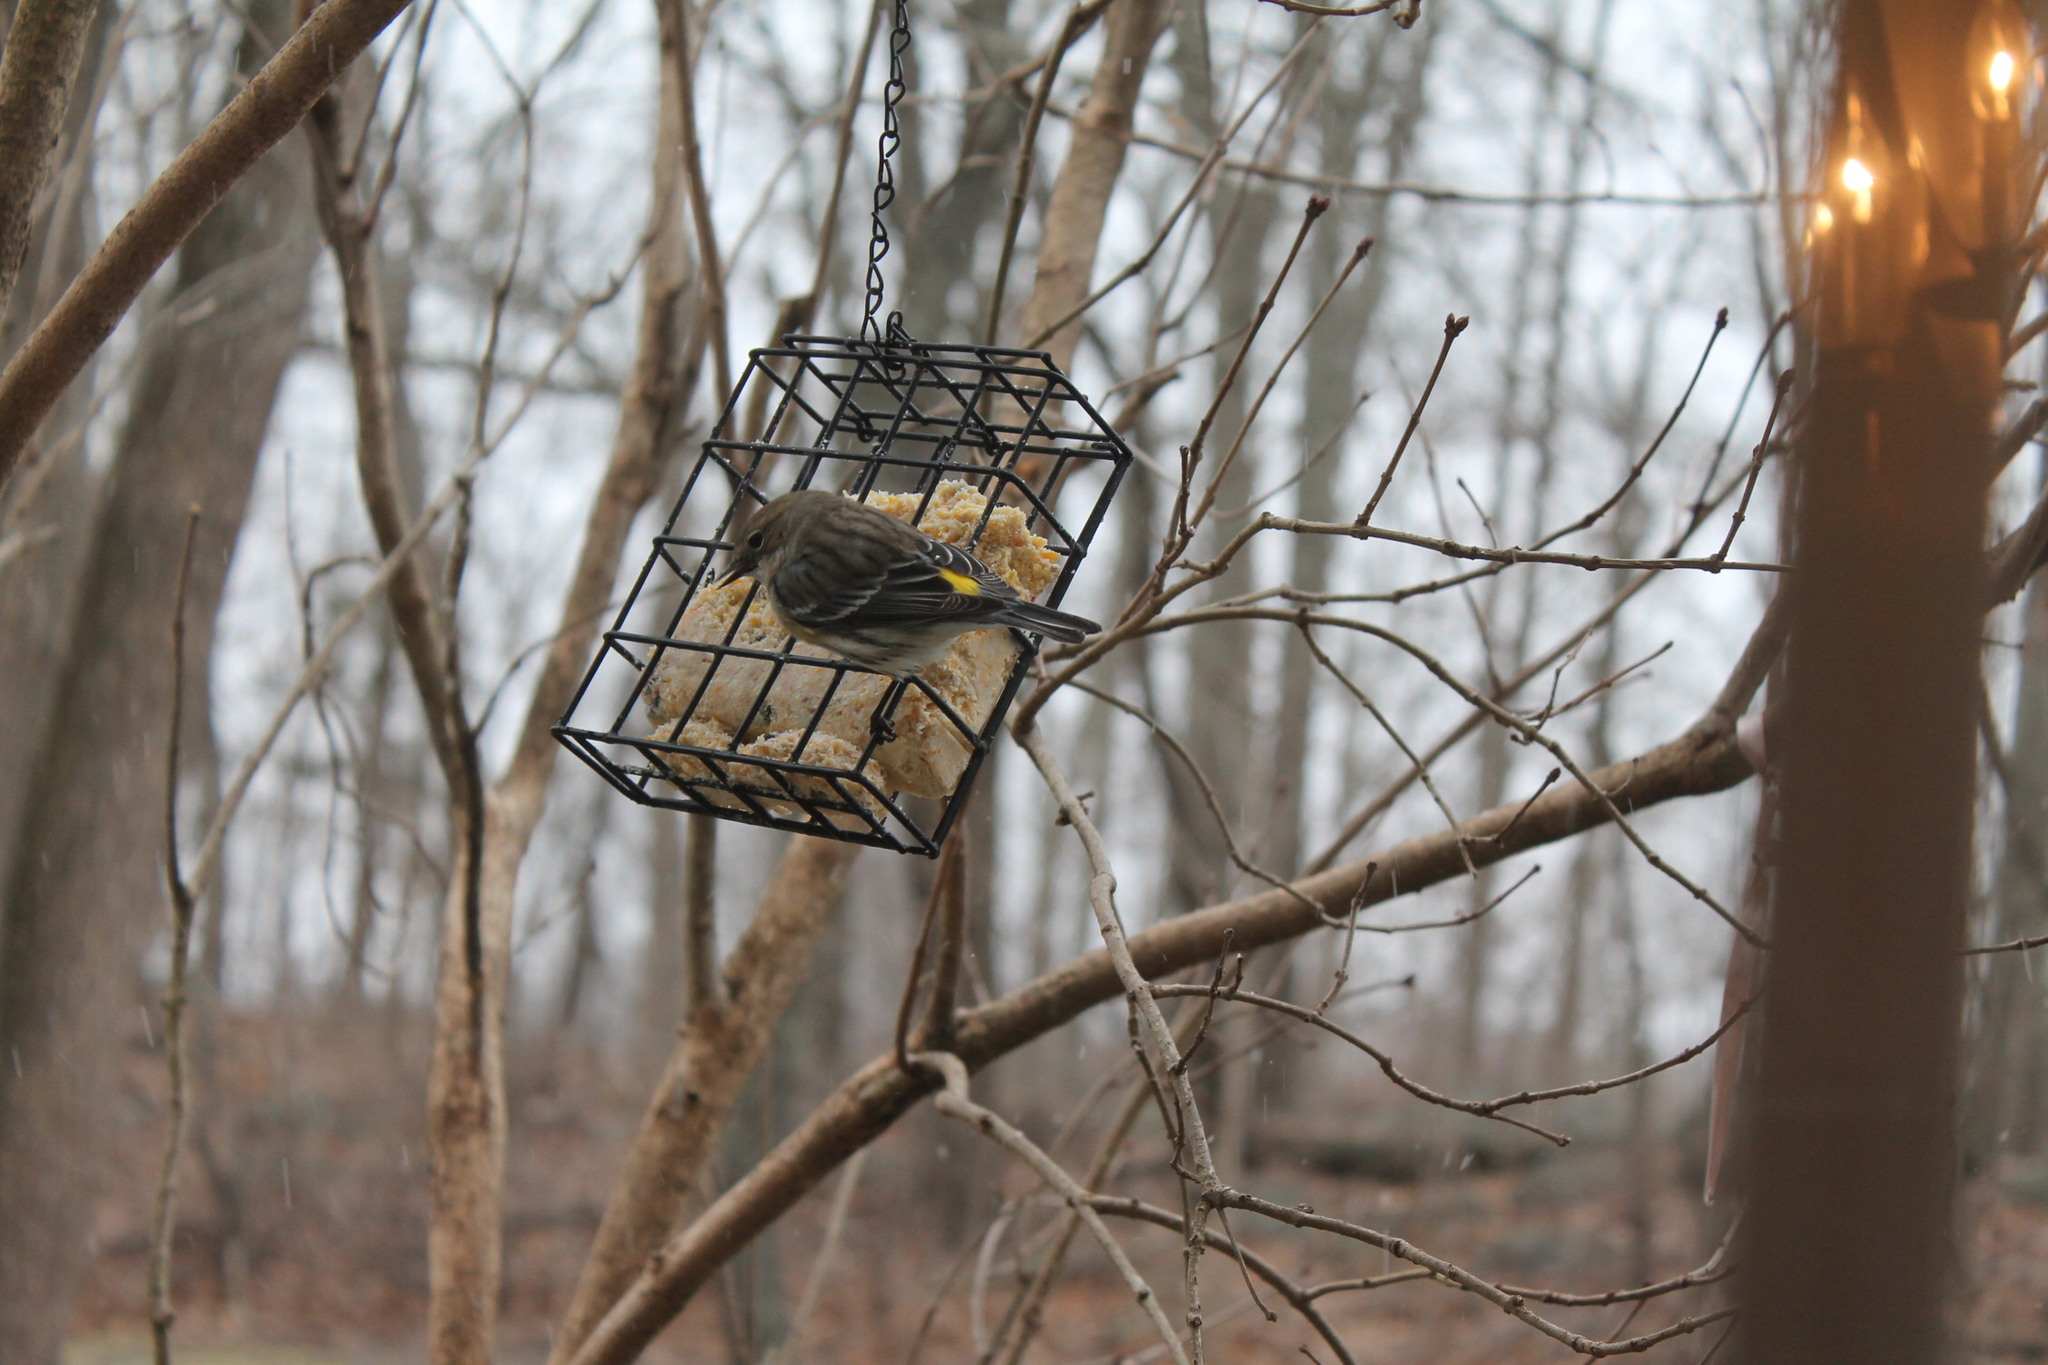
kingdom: Animalia
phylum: Chordata
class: Aves
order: Passeriformes
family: Parulidae
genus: Setophaga
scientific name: Setophaga coronata
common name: Myrtle warbler
